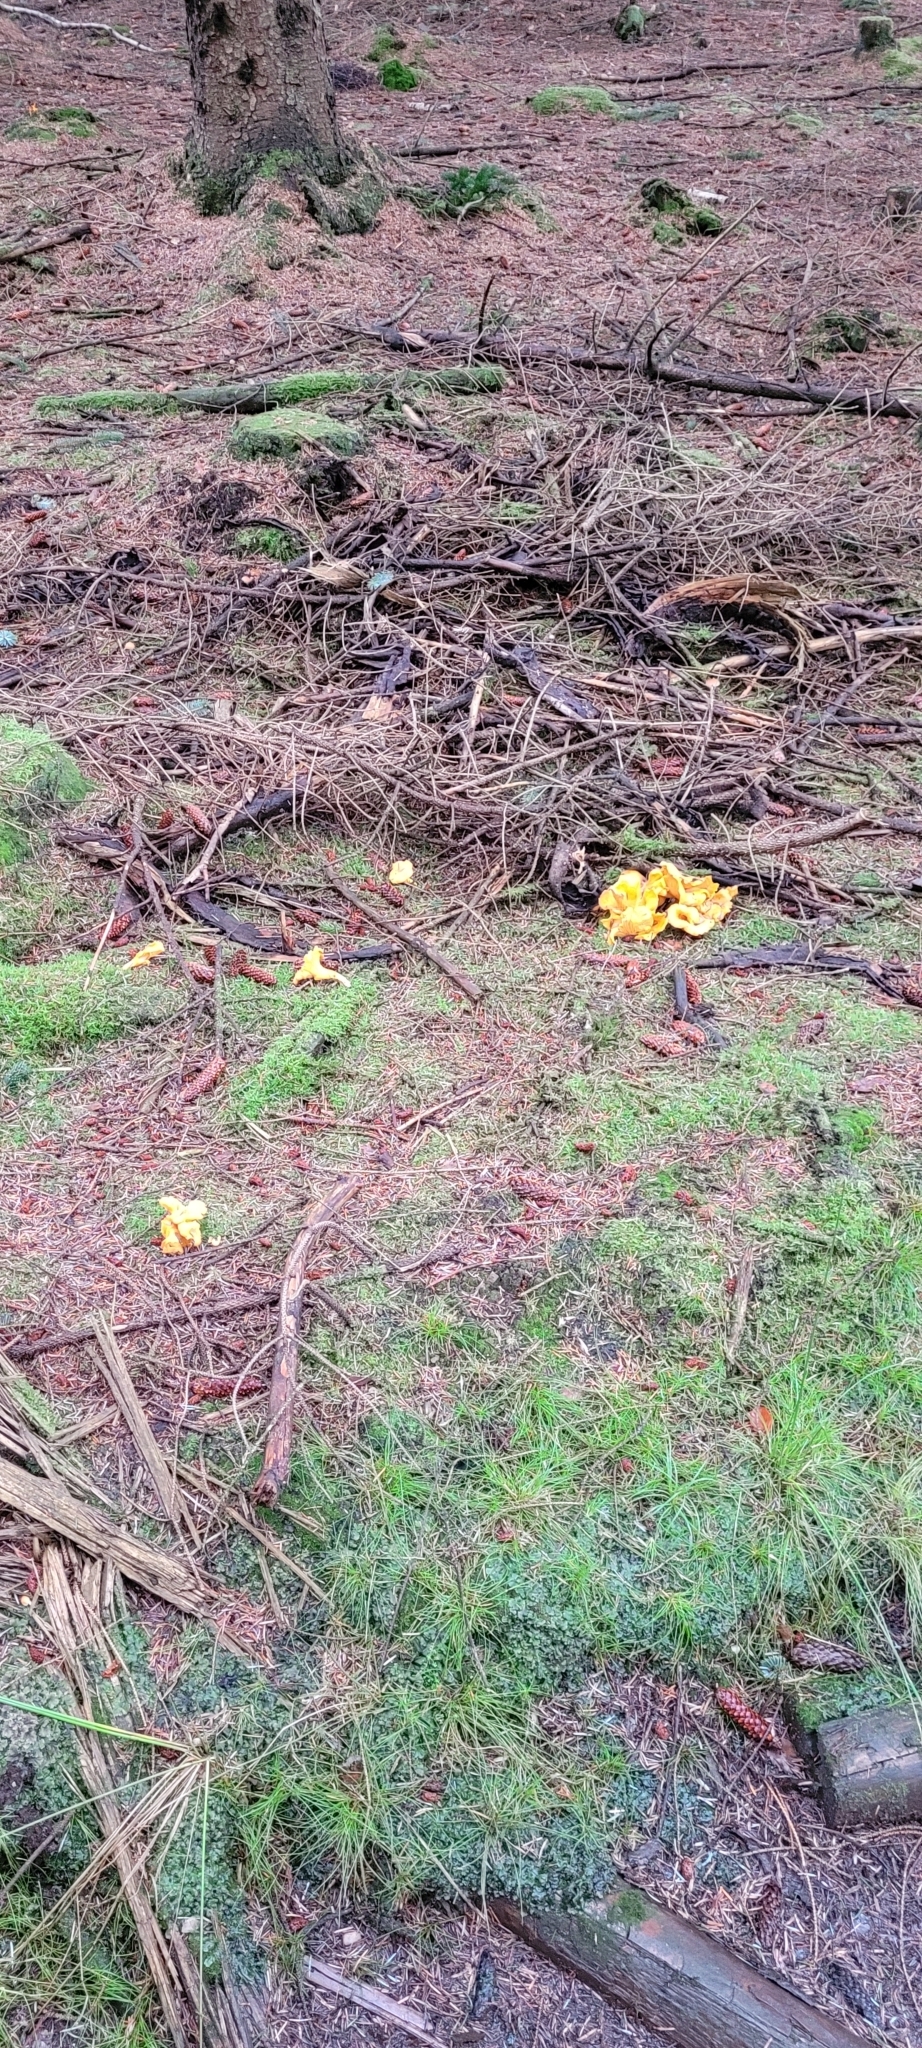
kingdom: Fungi
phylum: Basidiomycota
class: Agaricomycetes
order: Cantharellales
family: Hydnaceae
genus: Cantharellus
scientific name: Cantharellus cibarius
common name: Chanterelle
